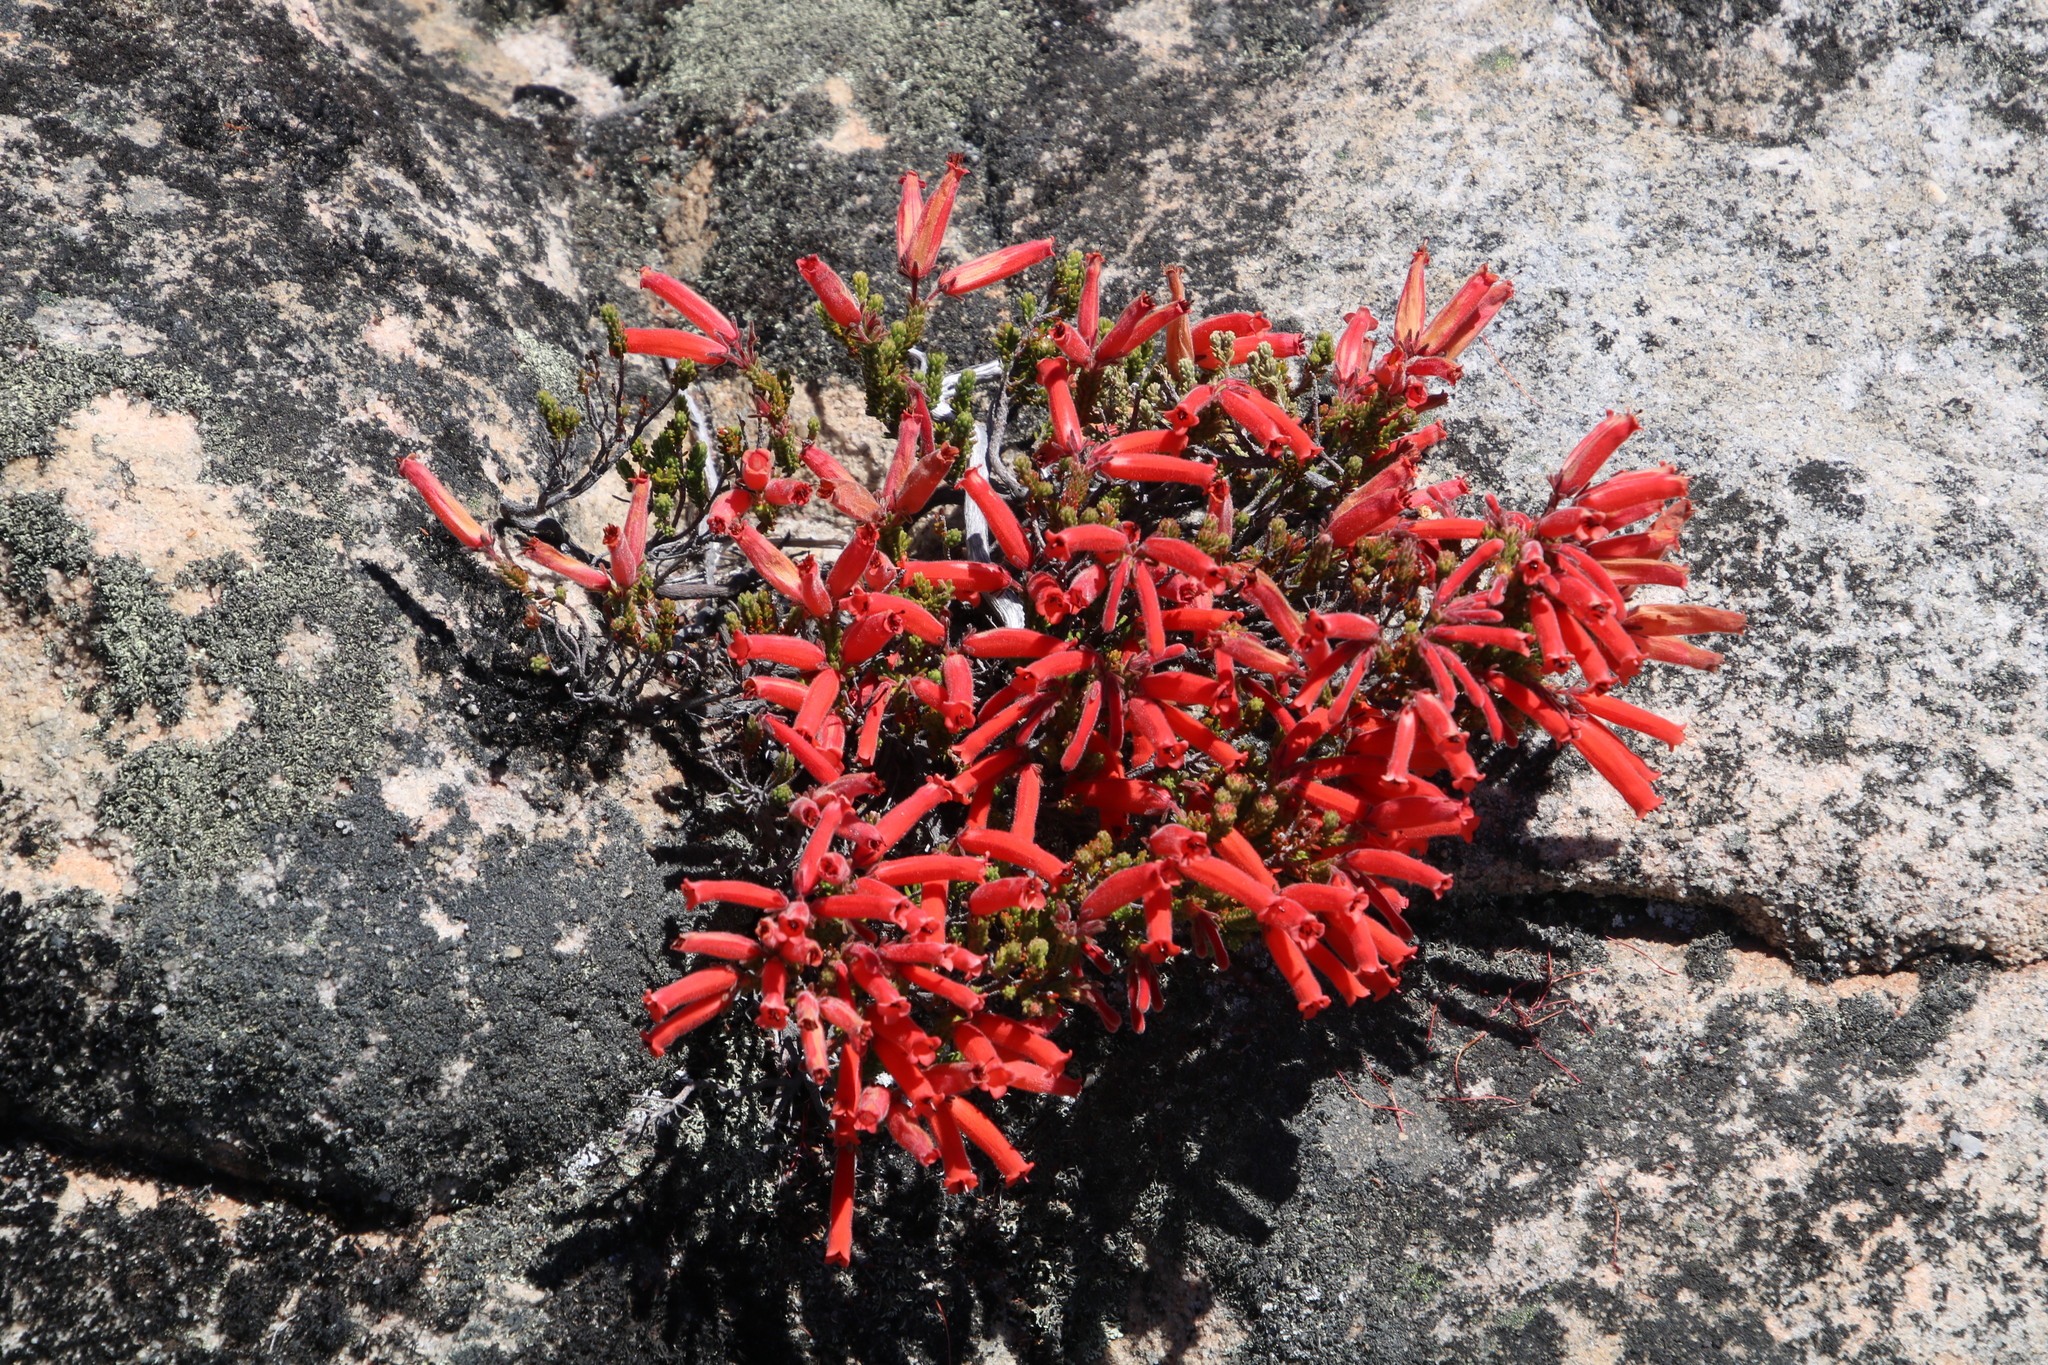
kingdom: Plantae
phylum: Tracheophyta
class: Magnoliopsida
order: Ericales
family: Ericaceae
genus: Erica
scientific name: Erica tumida
